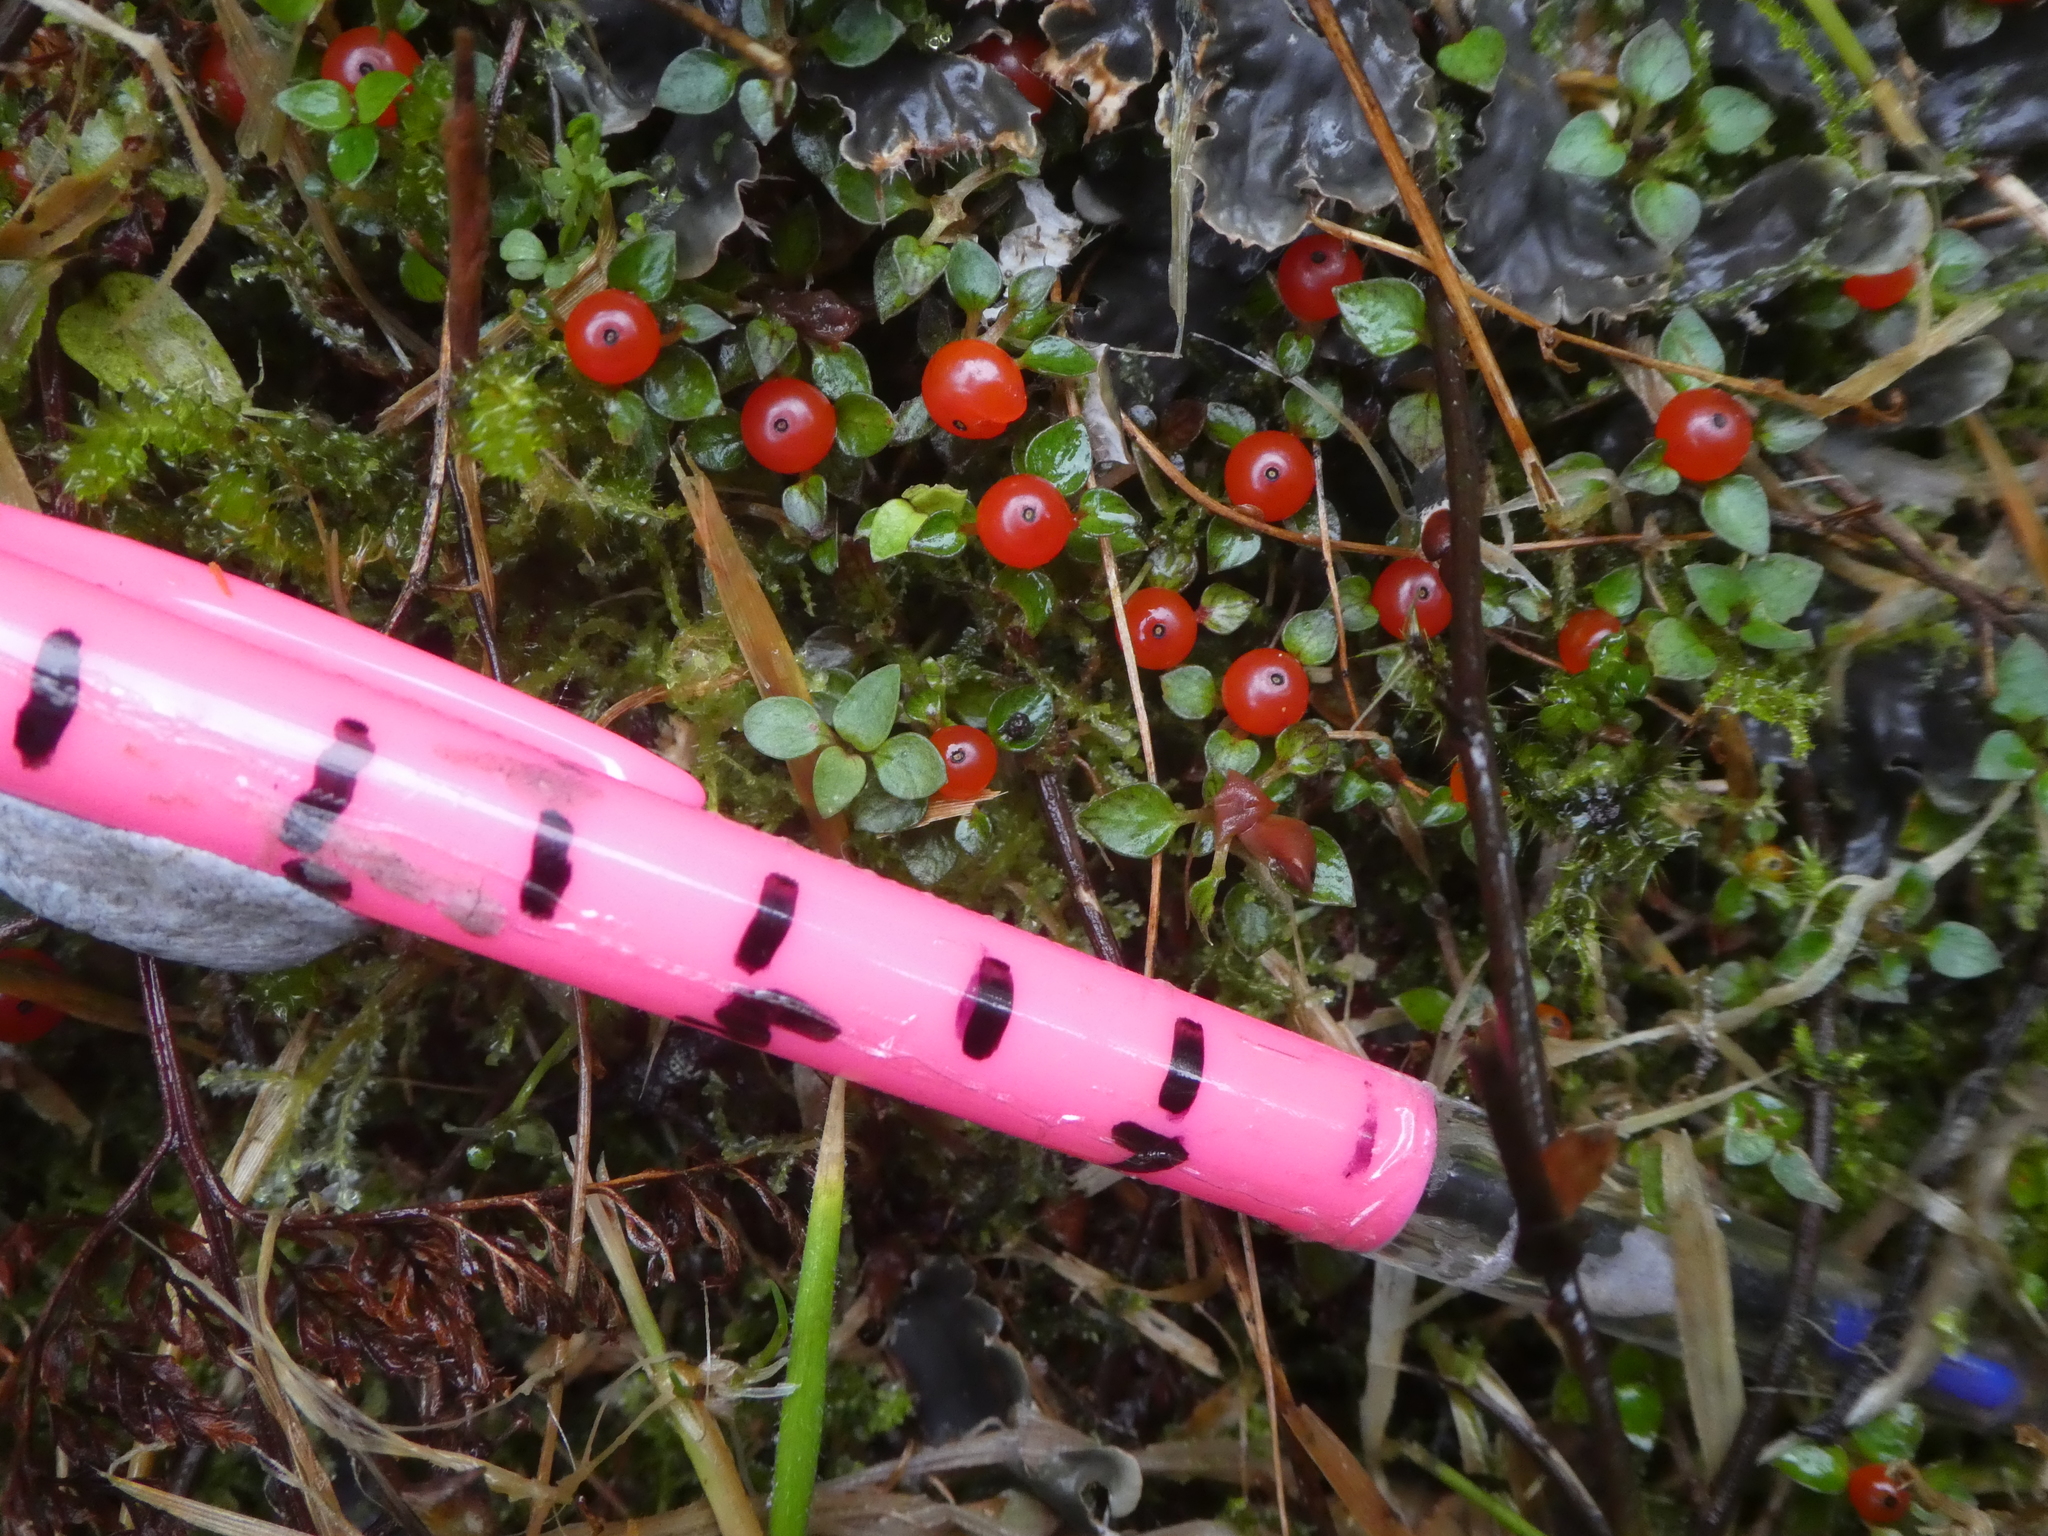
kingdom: Plantae
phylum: Tracheophyta
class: Magnoliopsida
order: Gentianales
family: Rubiaceae
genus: Nertera
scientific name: Nertera granadensis
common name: Beadplant
